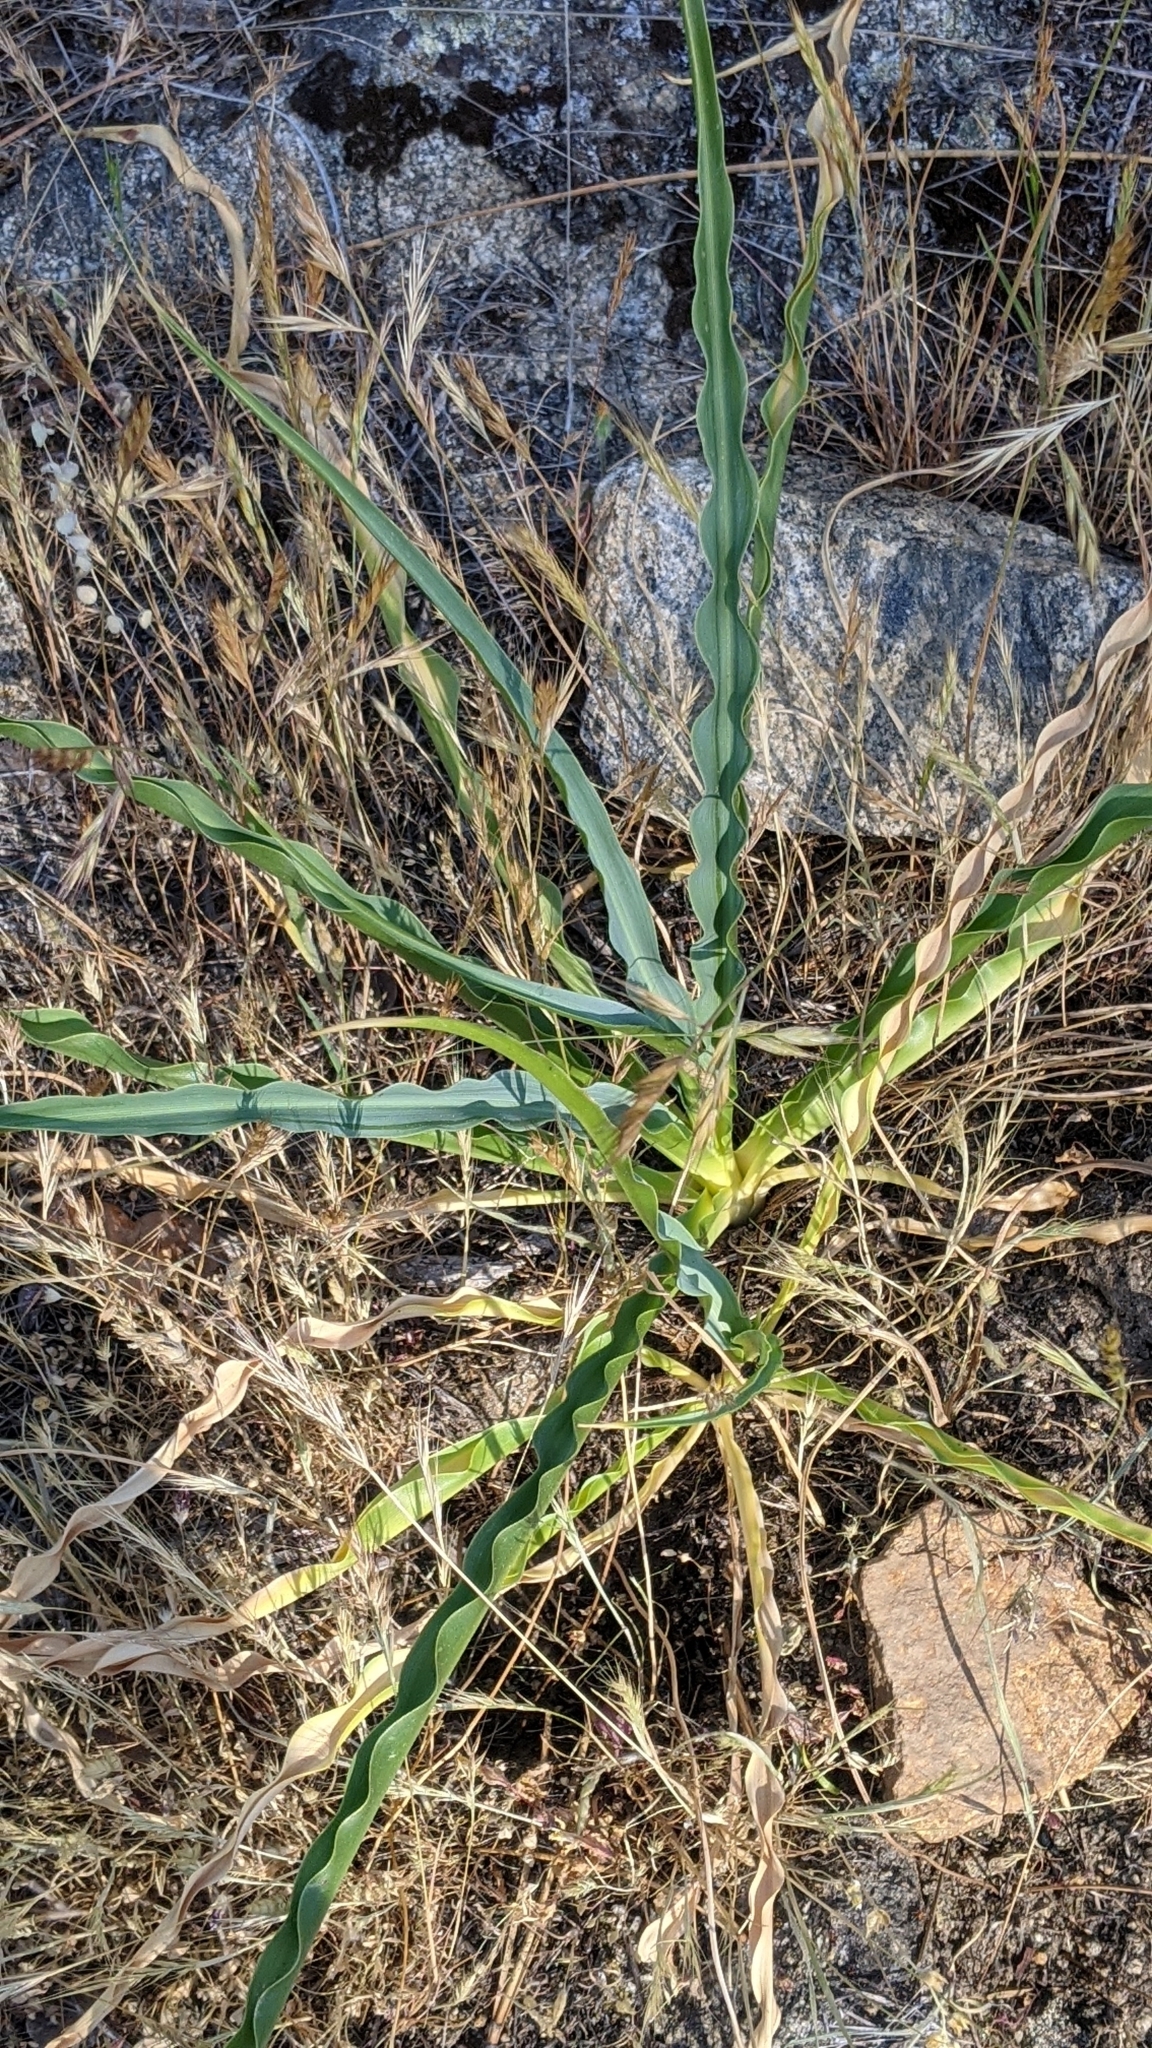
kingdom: Plantae
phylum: Tracheophyta
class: Liliopsida
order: Asparagales
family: Asparagaceae
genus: Chlorogalum
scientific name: Chlorogalum pomeridianum
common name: Amole
